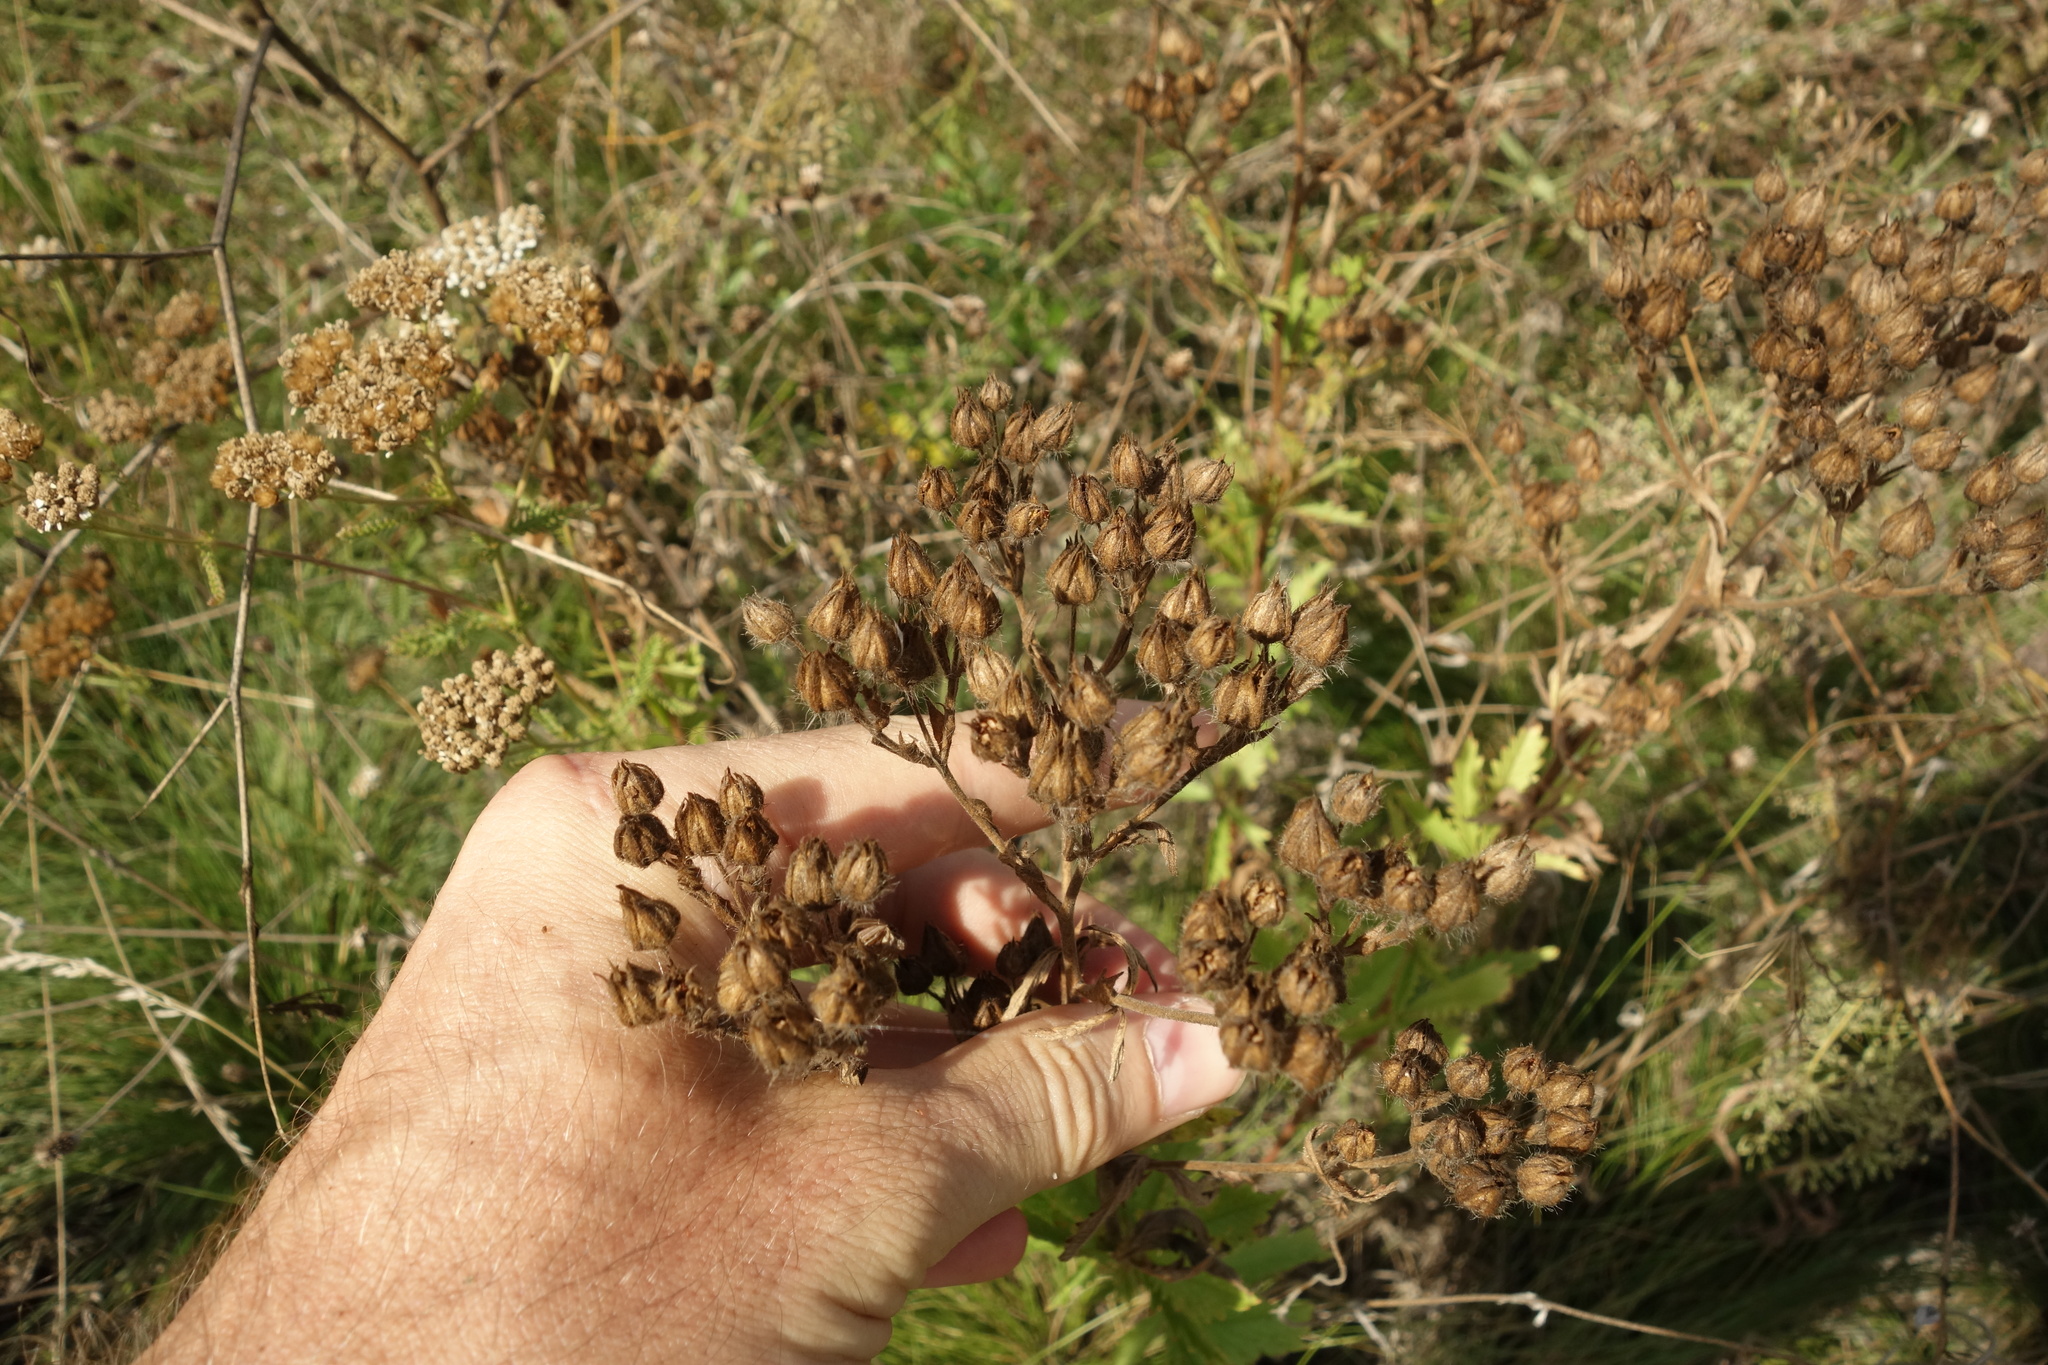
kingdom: Plantae
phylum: Tracheophyta
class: Magnoliopsida
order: Rosales
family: Rosaceae
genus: Potentilla
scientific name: Potentilla recta
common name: Sulphur cinquefoil
